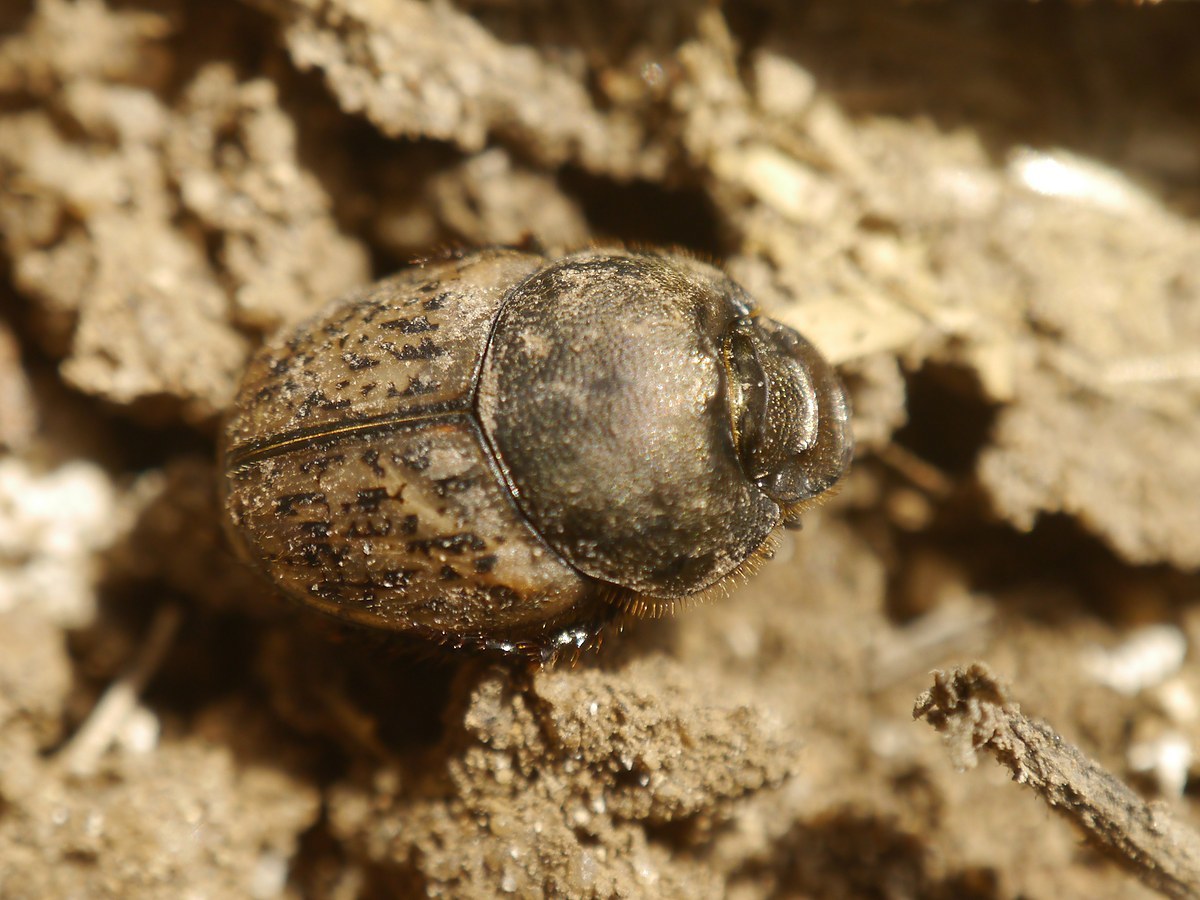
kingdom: Animalia
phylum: Arthropoda
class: Insecta
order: Coleoptera
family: Scarabaeidae
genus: Onthophagus
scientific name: Onthophagus vacca
